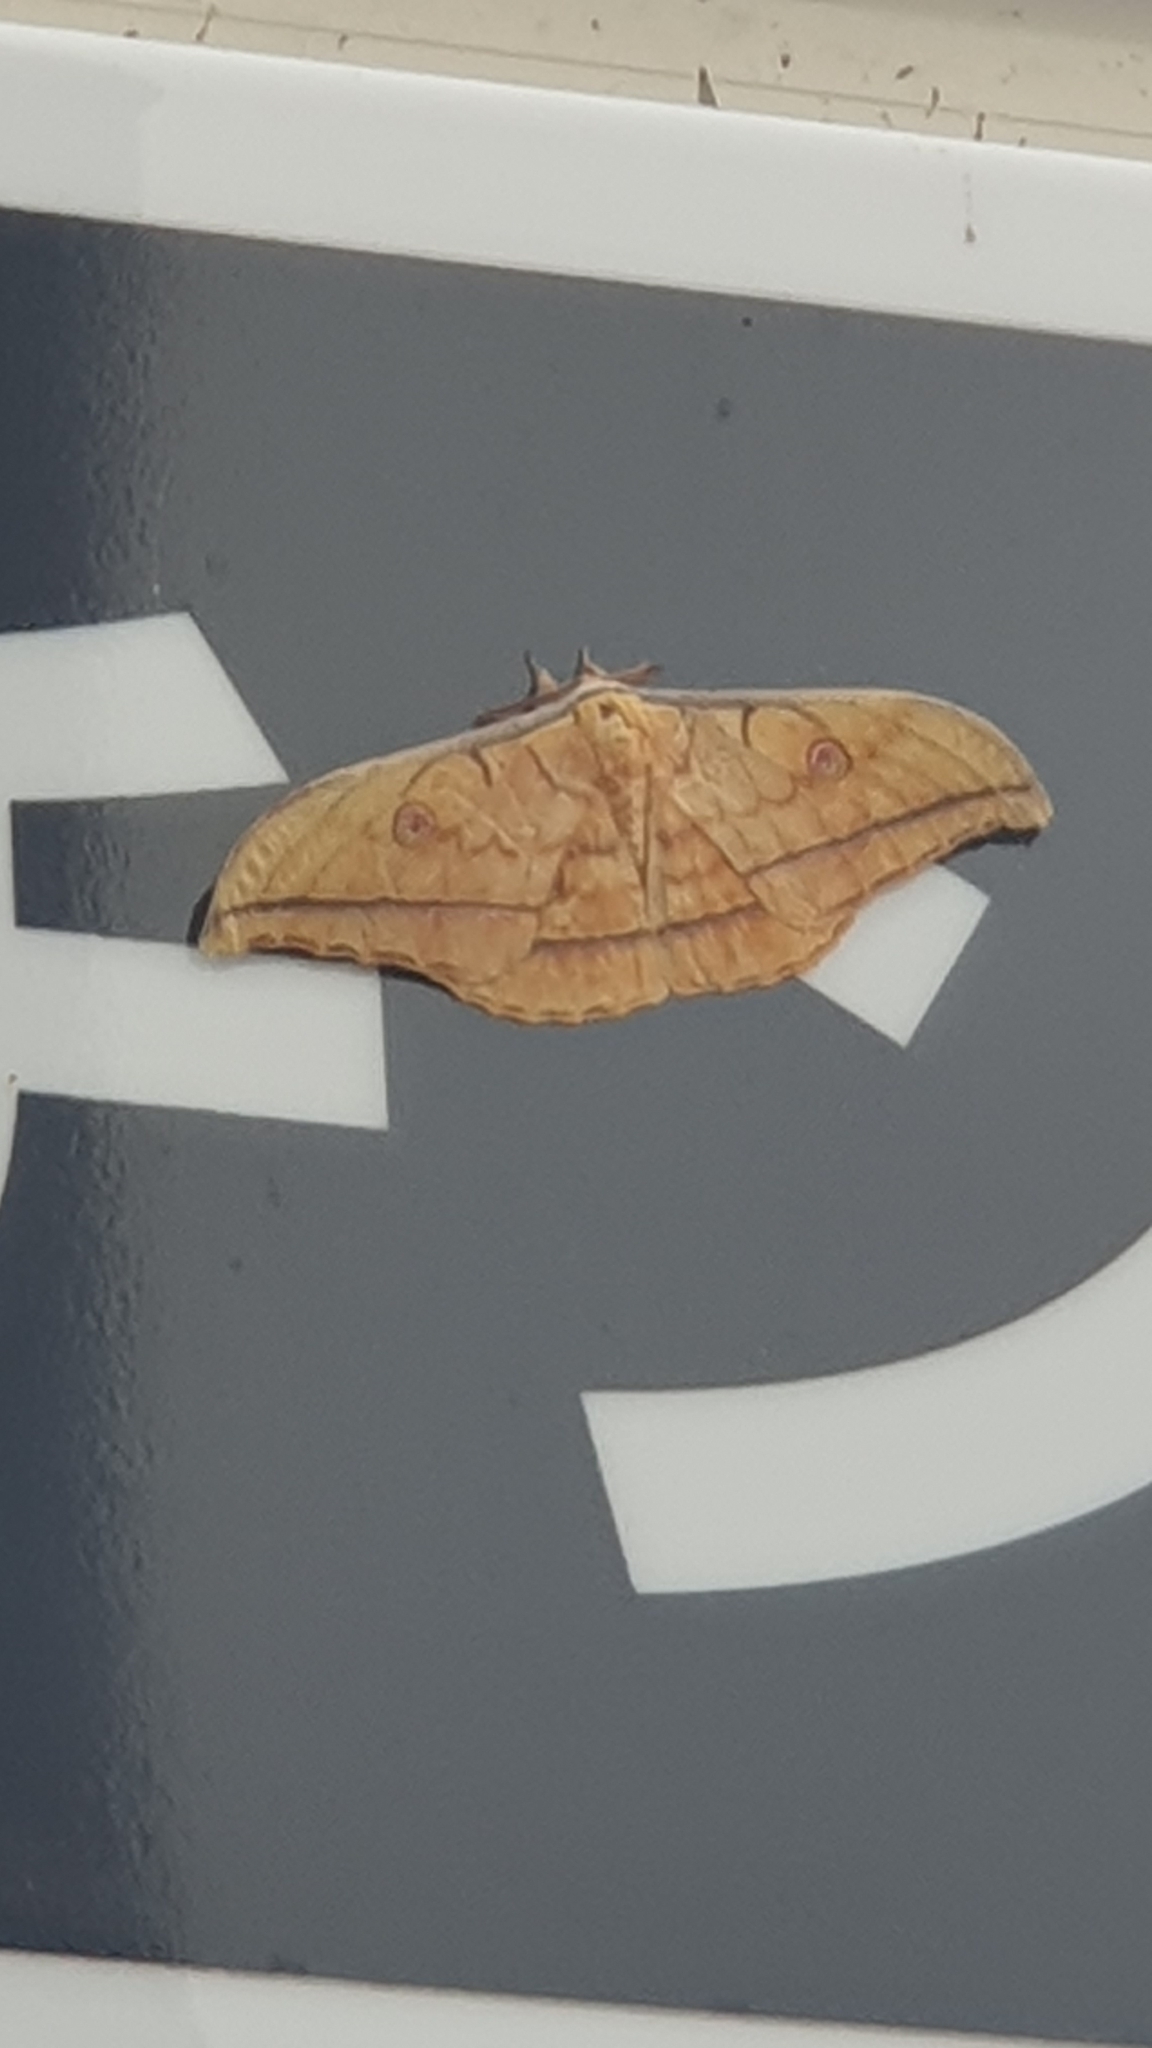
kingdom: Animalia
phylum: Arthropoda
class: Insecta
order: Lepidoptera
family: Saturniidae
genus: Antheraea
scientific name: Antheraea yamamai
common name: Japanese oak silk moth
